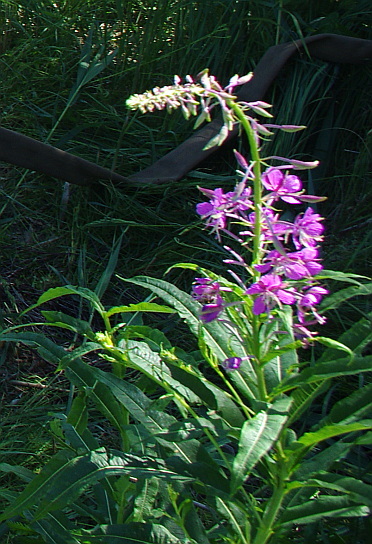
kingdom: Plantae
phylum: Tracheophyta
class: Magnoliopsida
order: Myrtales
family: Onagraceae
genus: Chamaenerion
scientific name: Chamaenerion angustifolium
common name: Fireweed
